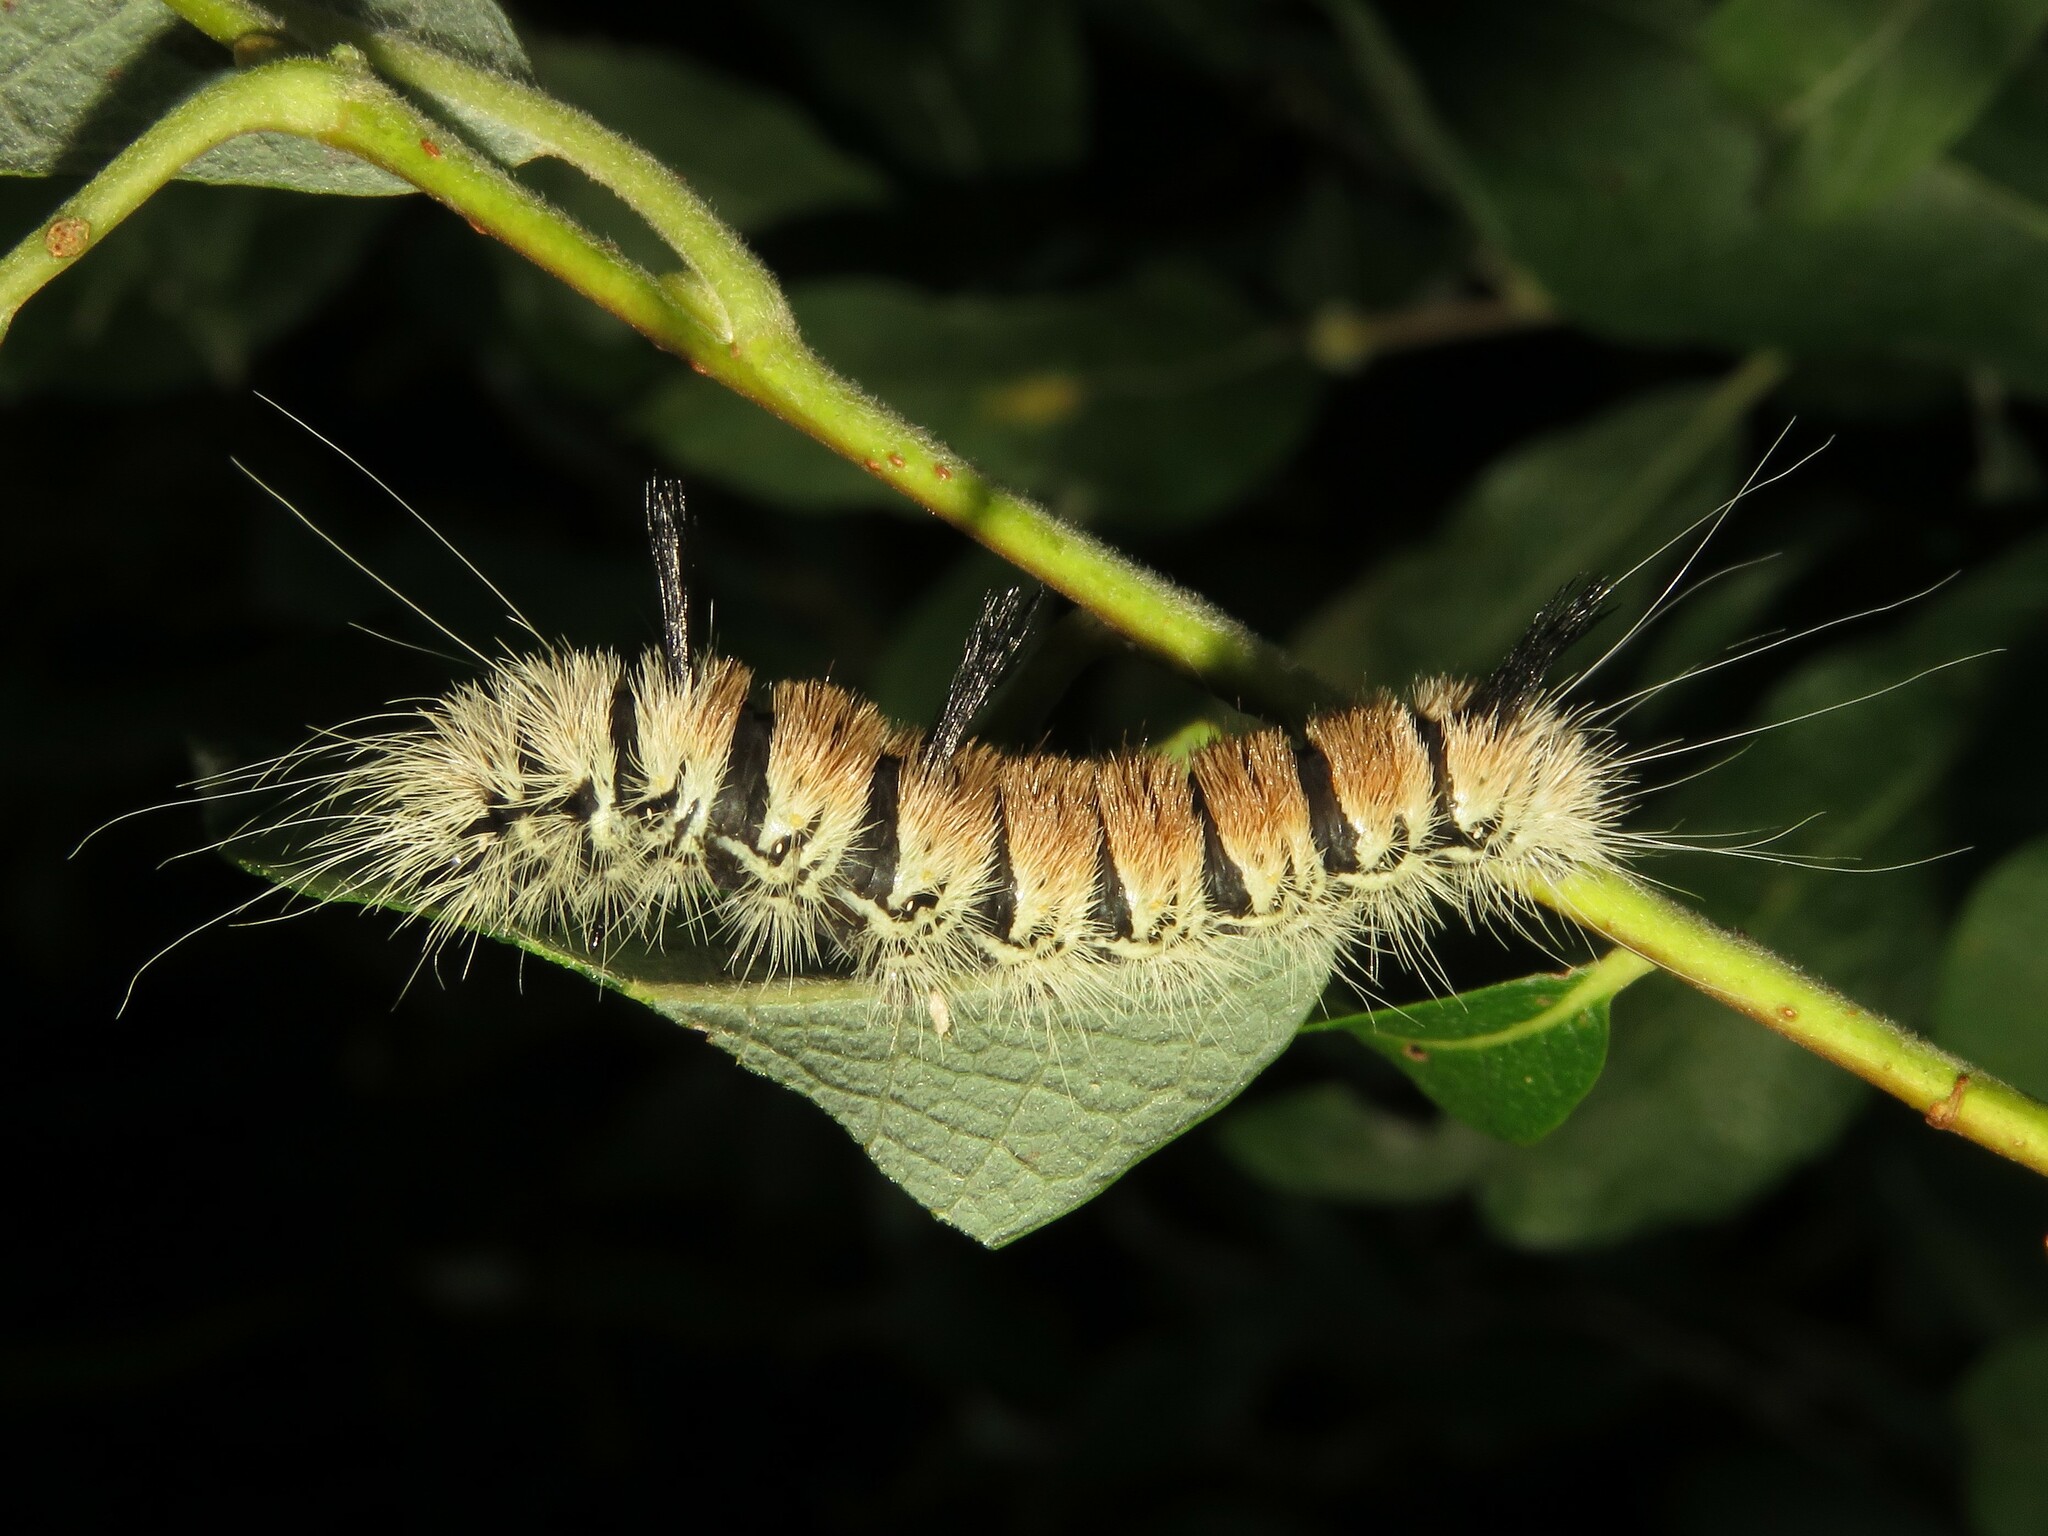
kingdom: Animalia
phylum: Arthropoda
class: Insecta
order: Lepidoptera
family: Noctuidae
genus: Acronicta
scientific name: Acronicta insita
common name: Large gray dagger
